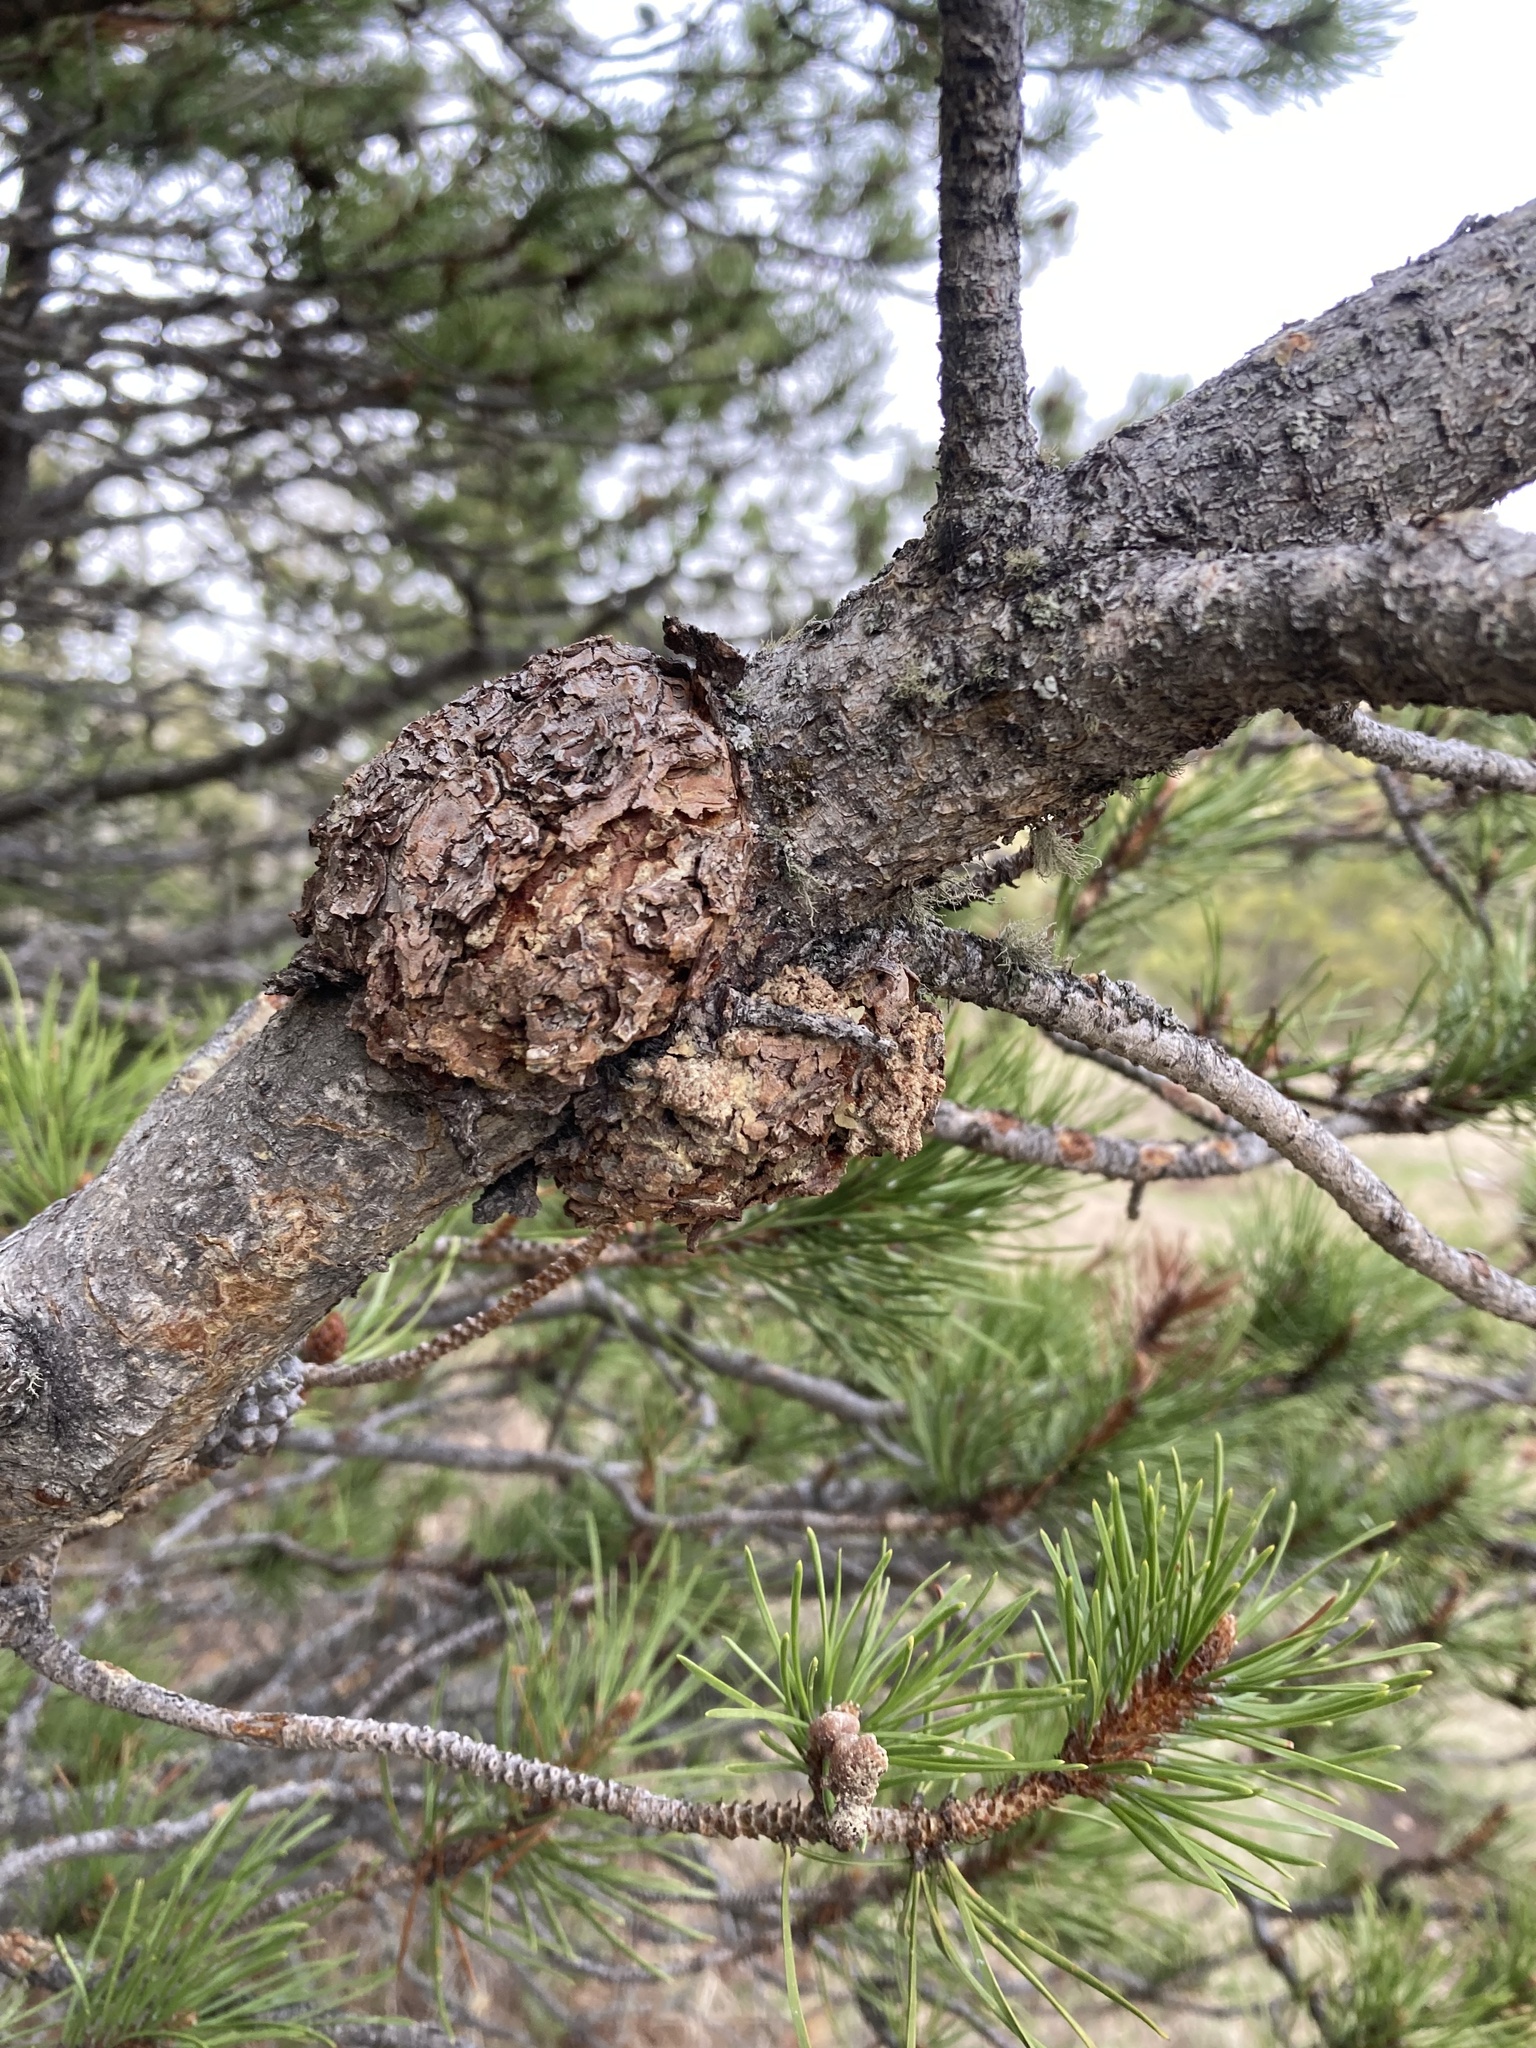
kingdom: Fungi
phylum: Basidiomycota
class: Pucciniomycetes
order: Pucciniales
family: Cronartiaceae
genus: Cronartium
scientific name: Cronartium harknessii
